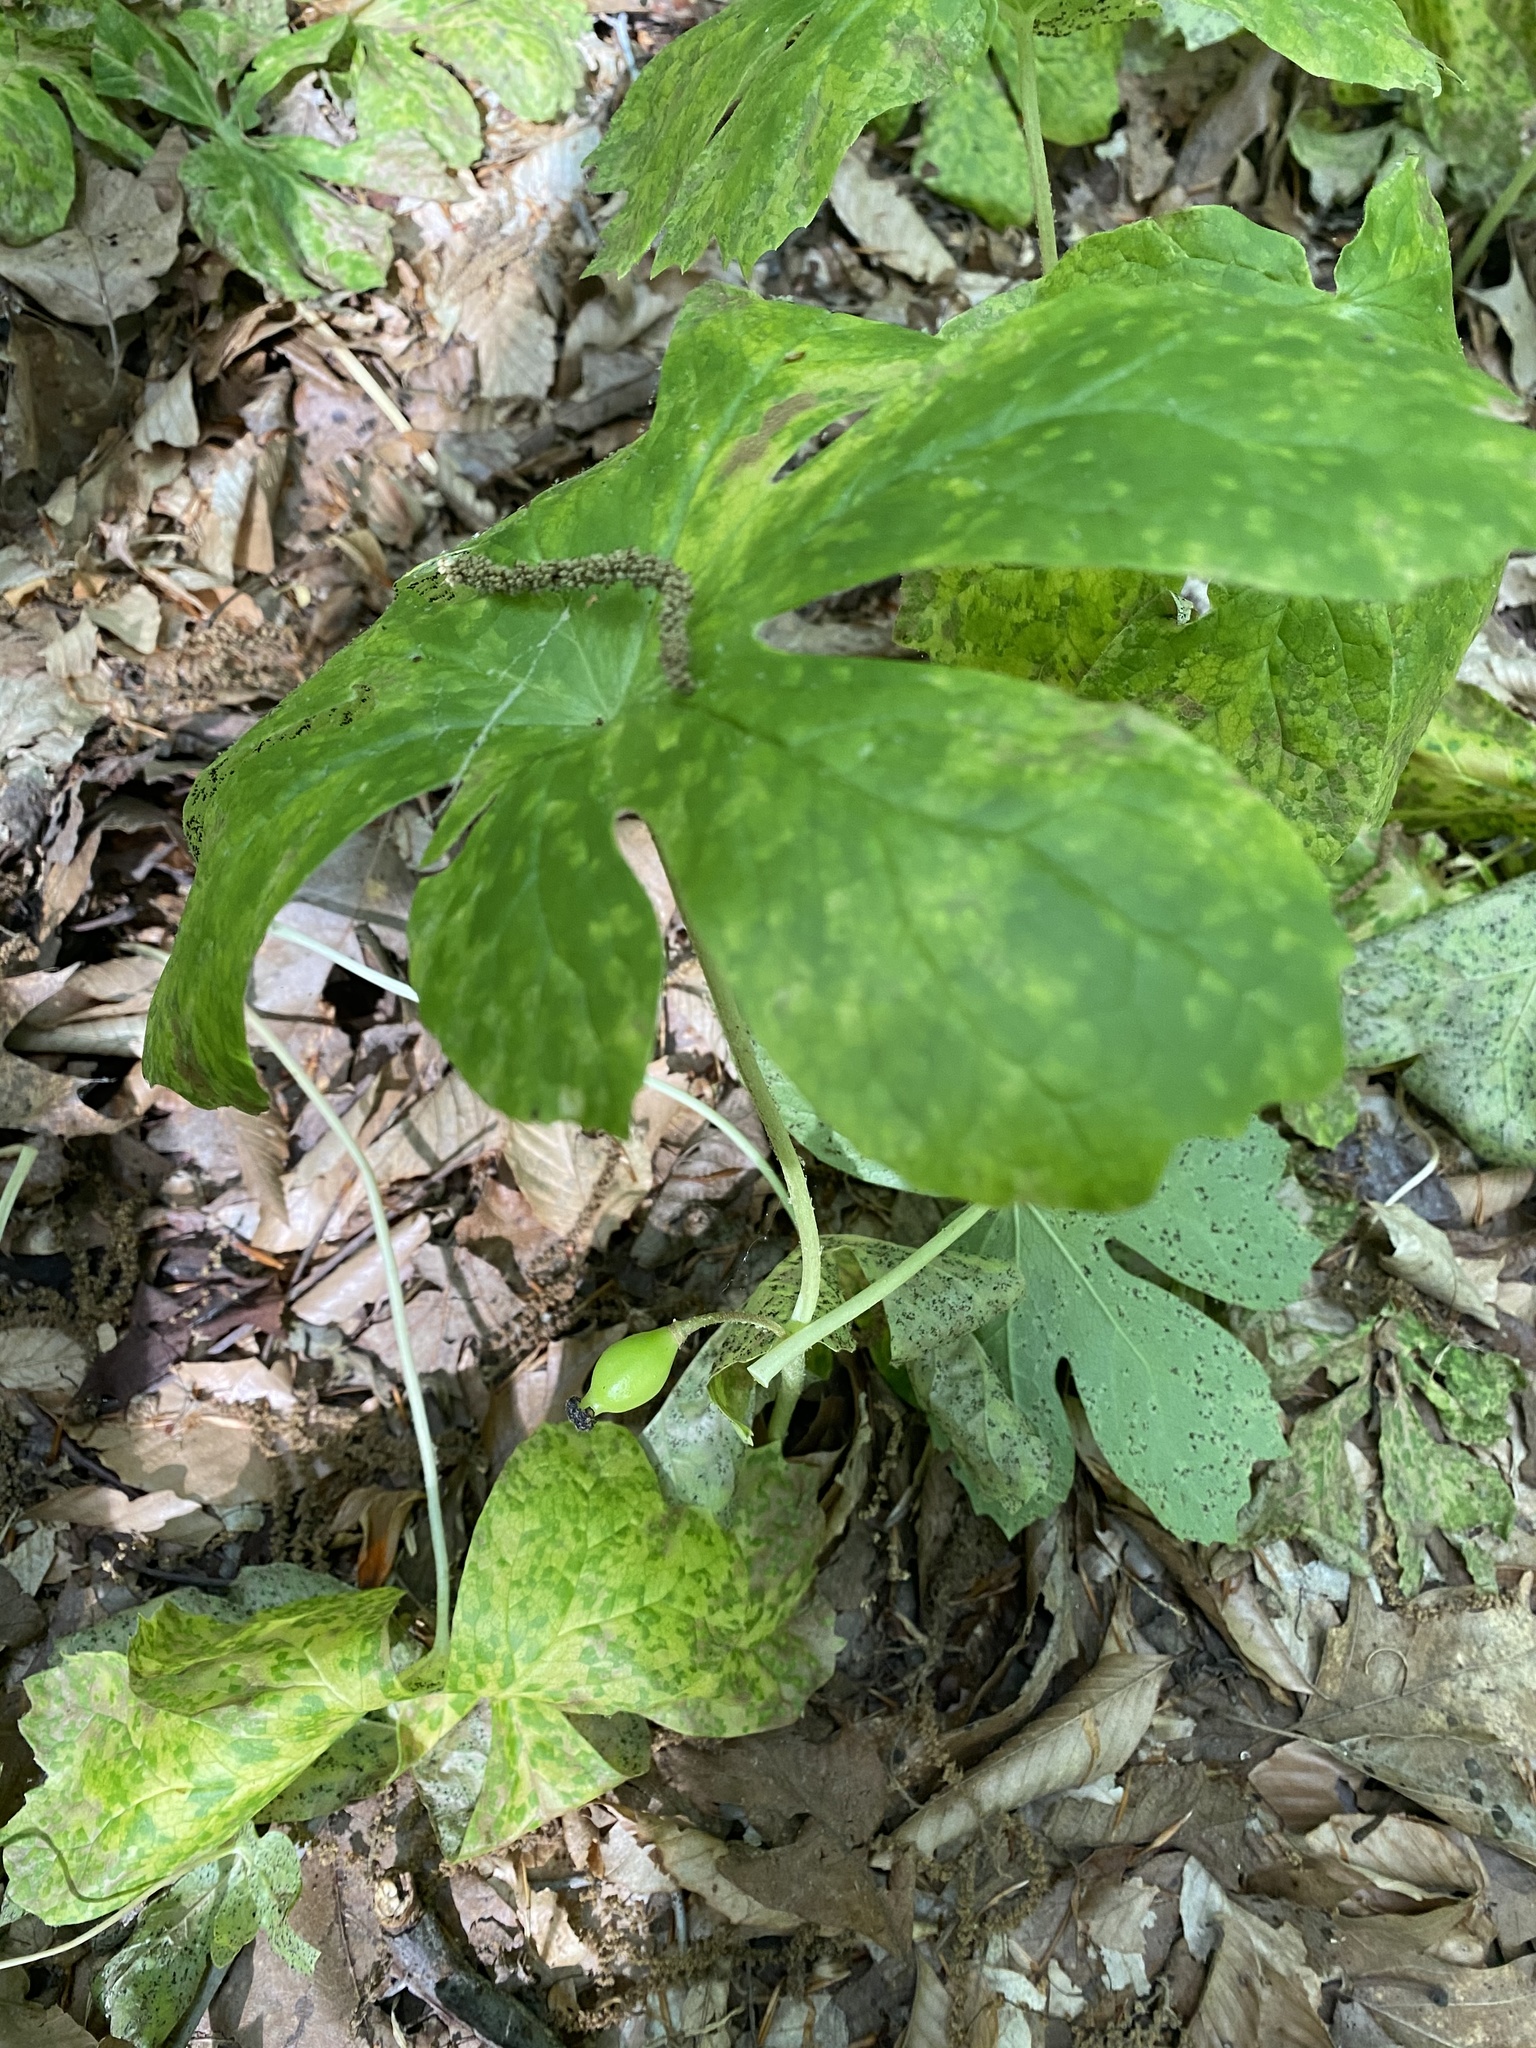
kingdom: Plantae
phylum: Tracheophyta
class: Magnoliopsida
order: Ranunculales
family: Berberidaceae
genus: Podophyllum
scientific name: Podophyllum peltatum
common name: Wild mandrake
